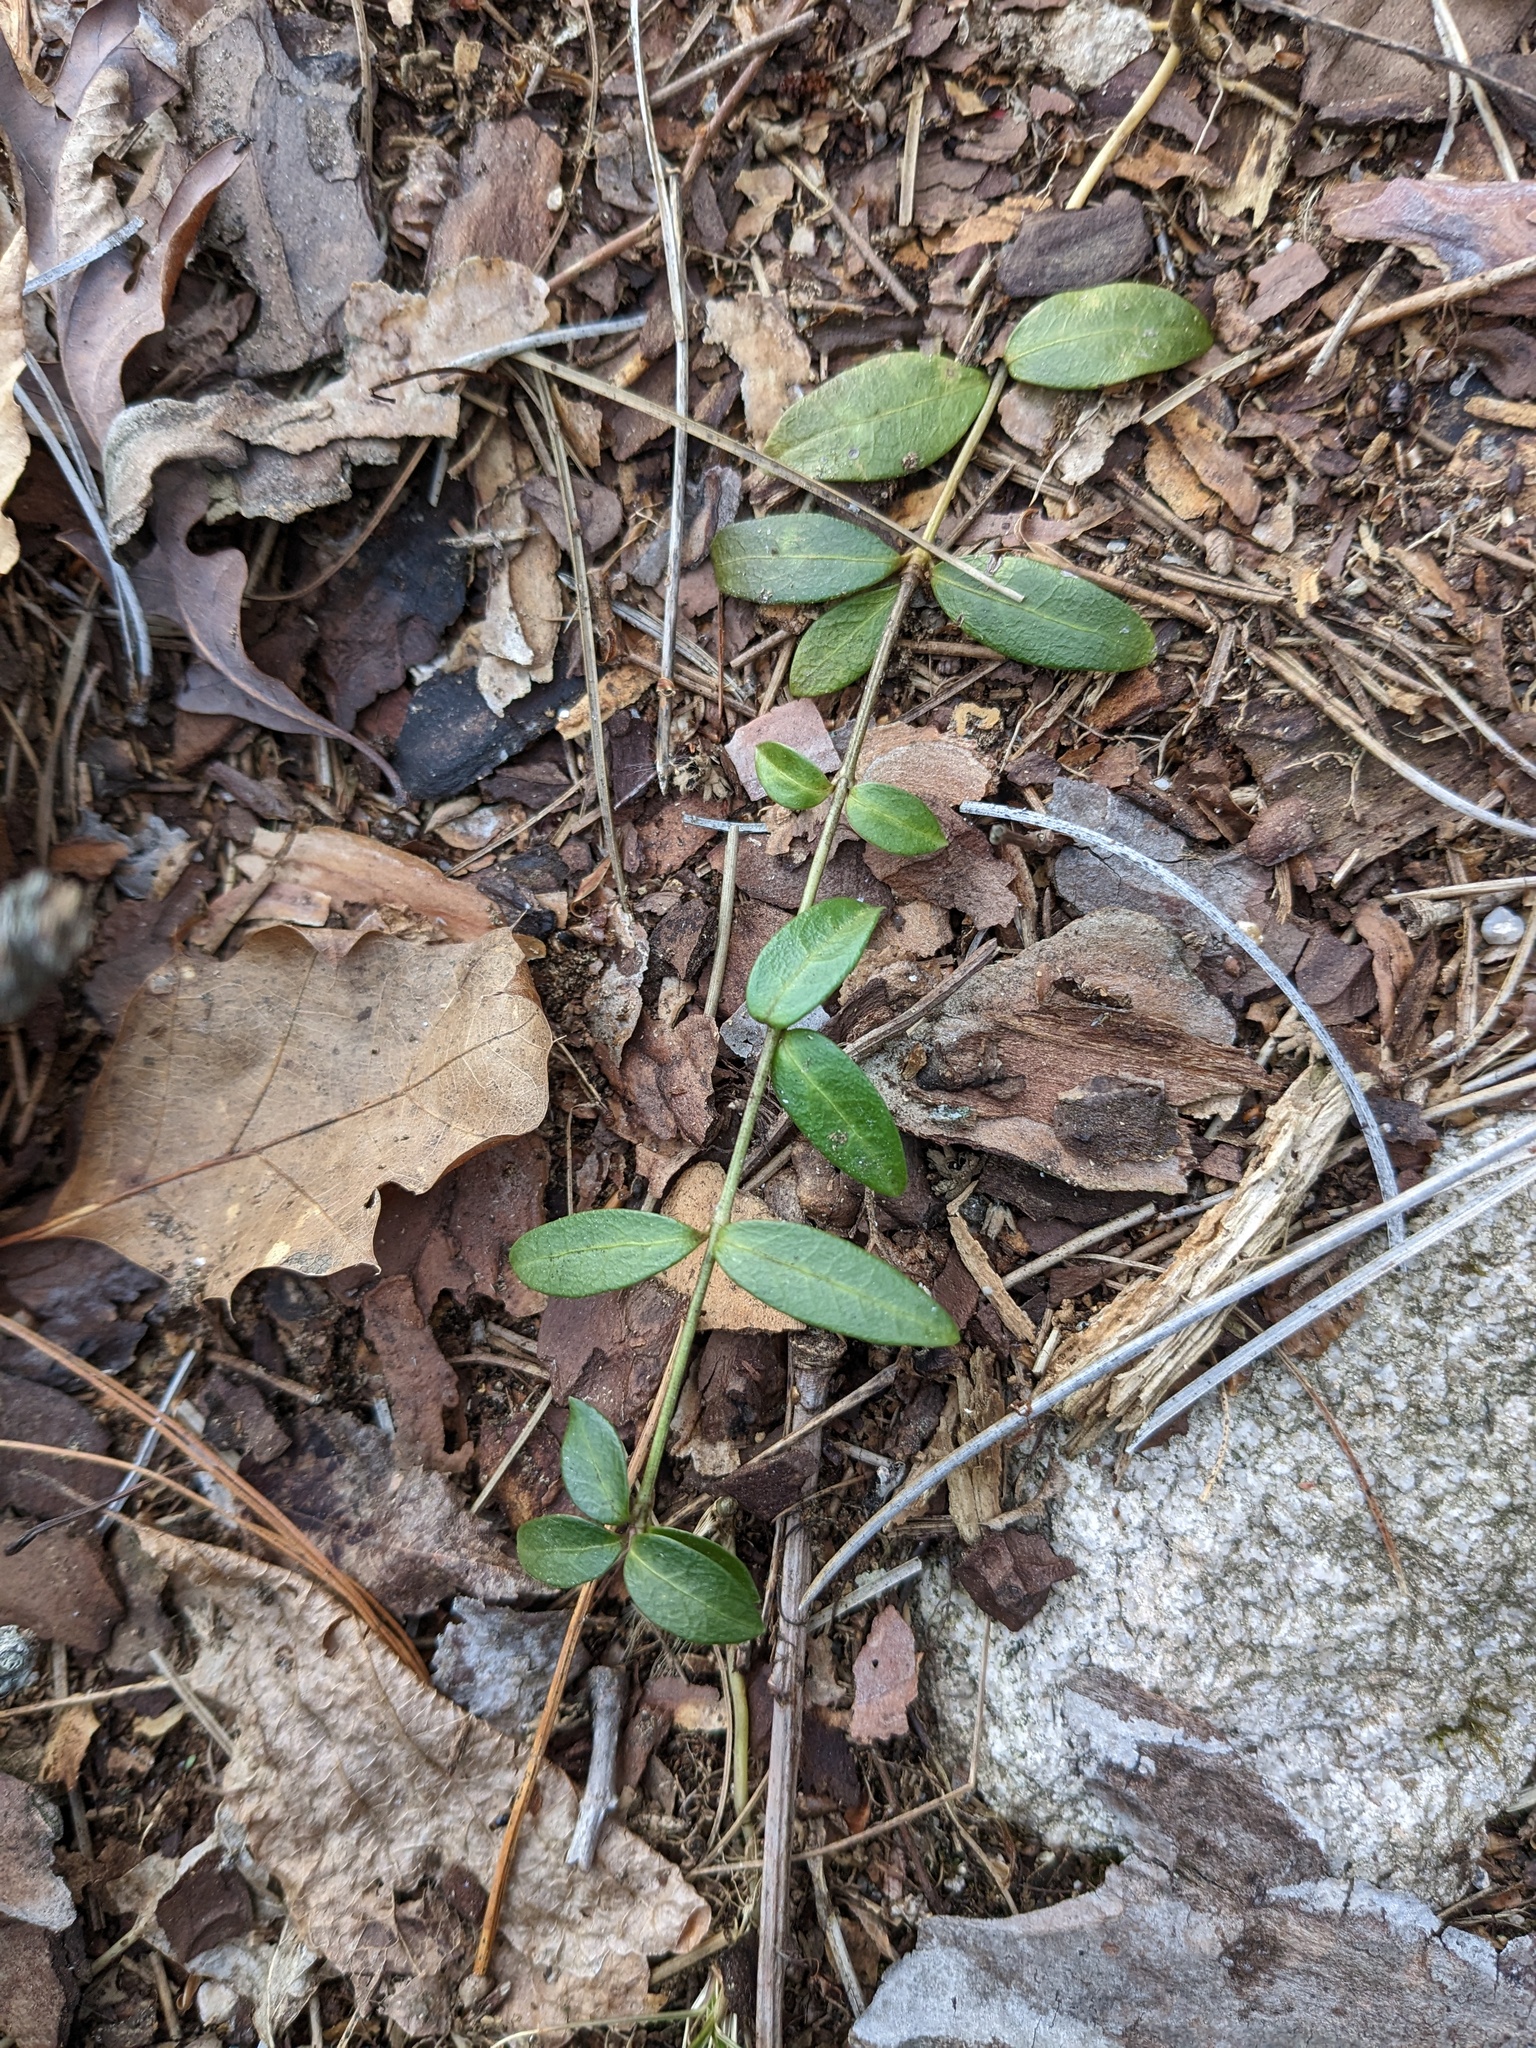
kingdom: Plantae
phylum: Tracheophyta
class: Magnoliopsida
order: Gentianales
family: Apocynaceae
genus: Vinca
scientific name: Vinca minor
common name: Lesser periwinkle
